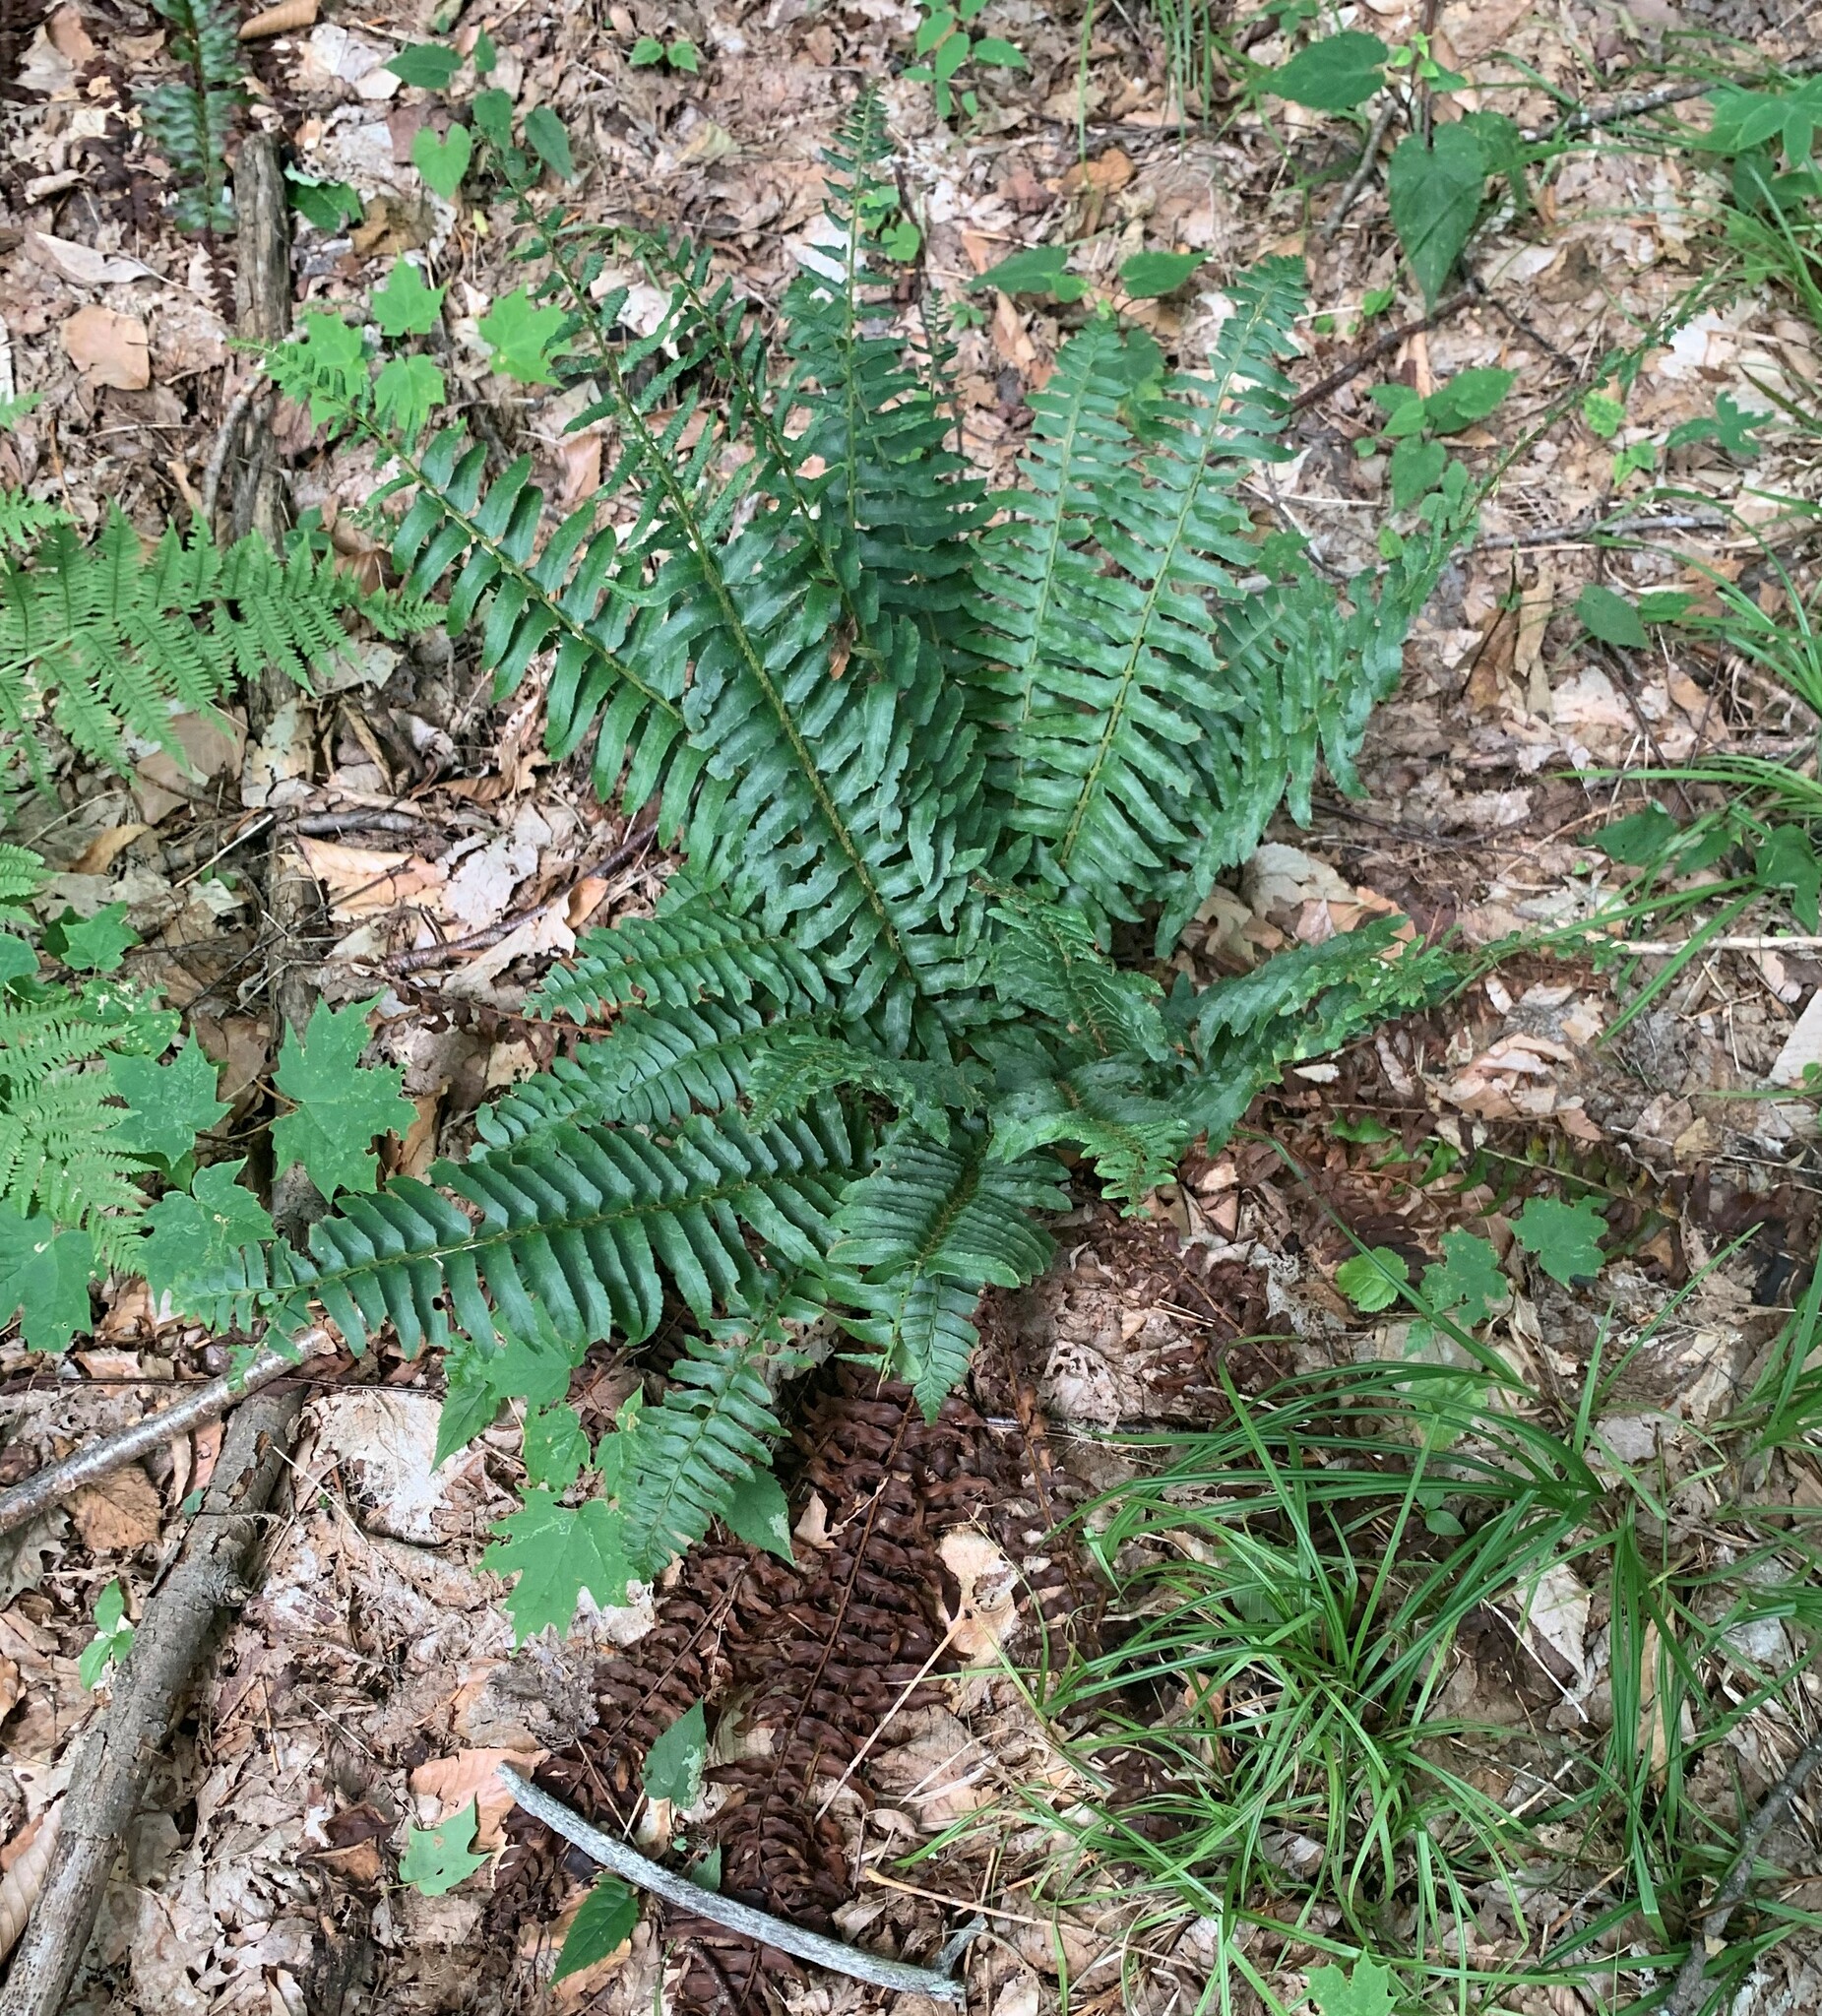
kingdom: Plantae
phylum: Tracheophyta
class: Polypodiopsida
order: Polypodiales
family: Dryopteridaceae
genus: Polystichum
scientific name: Polystichum acrostichoides
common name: Christmas fern
